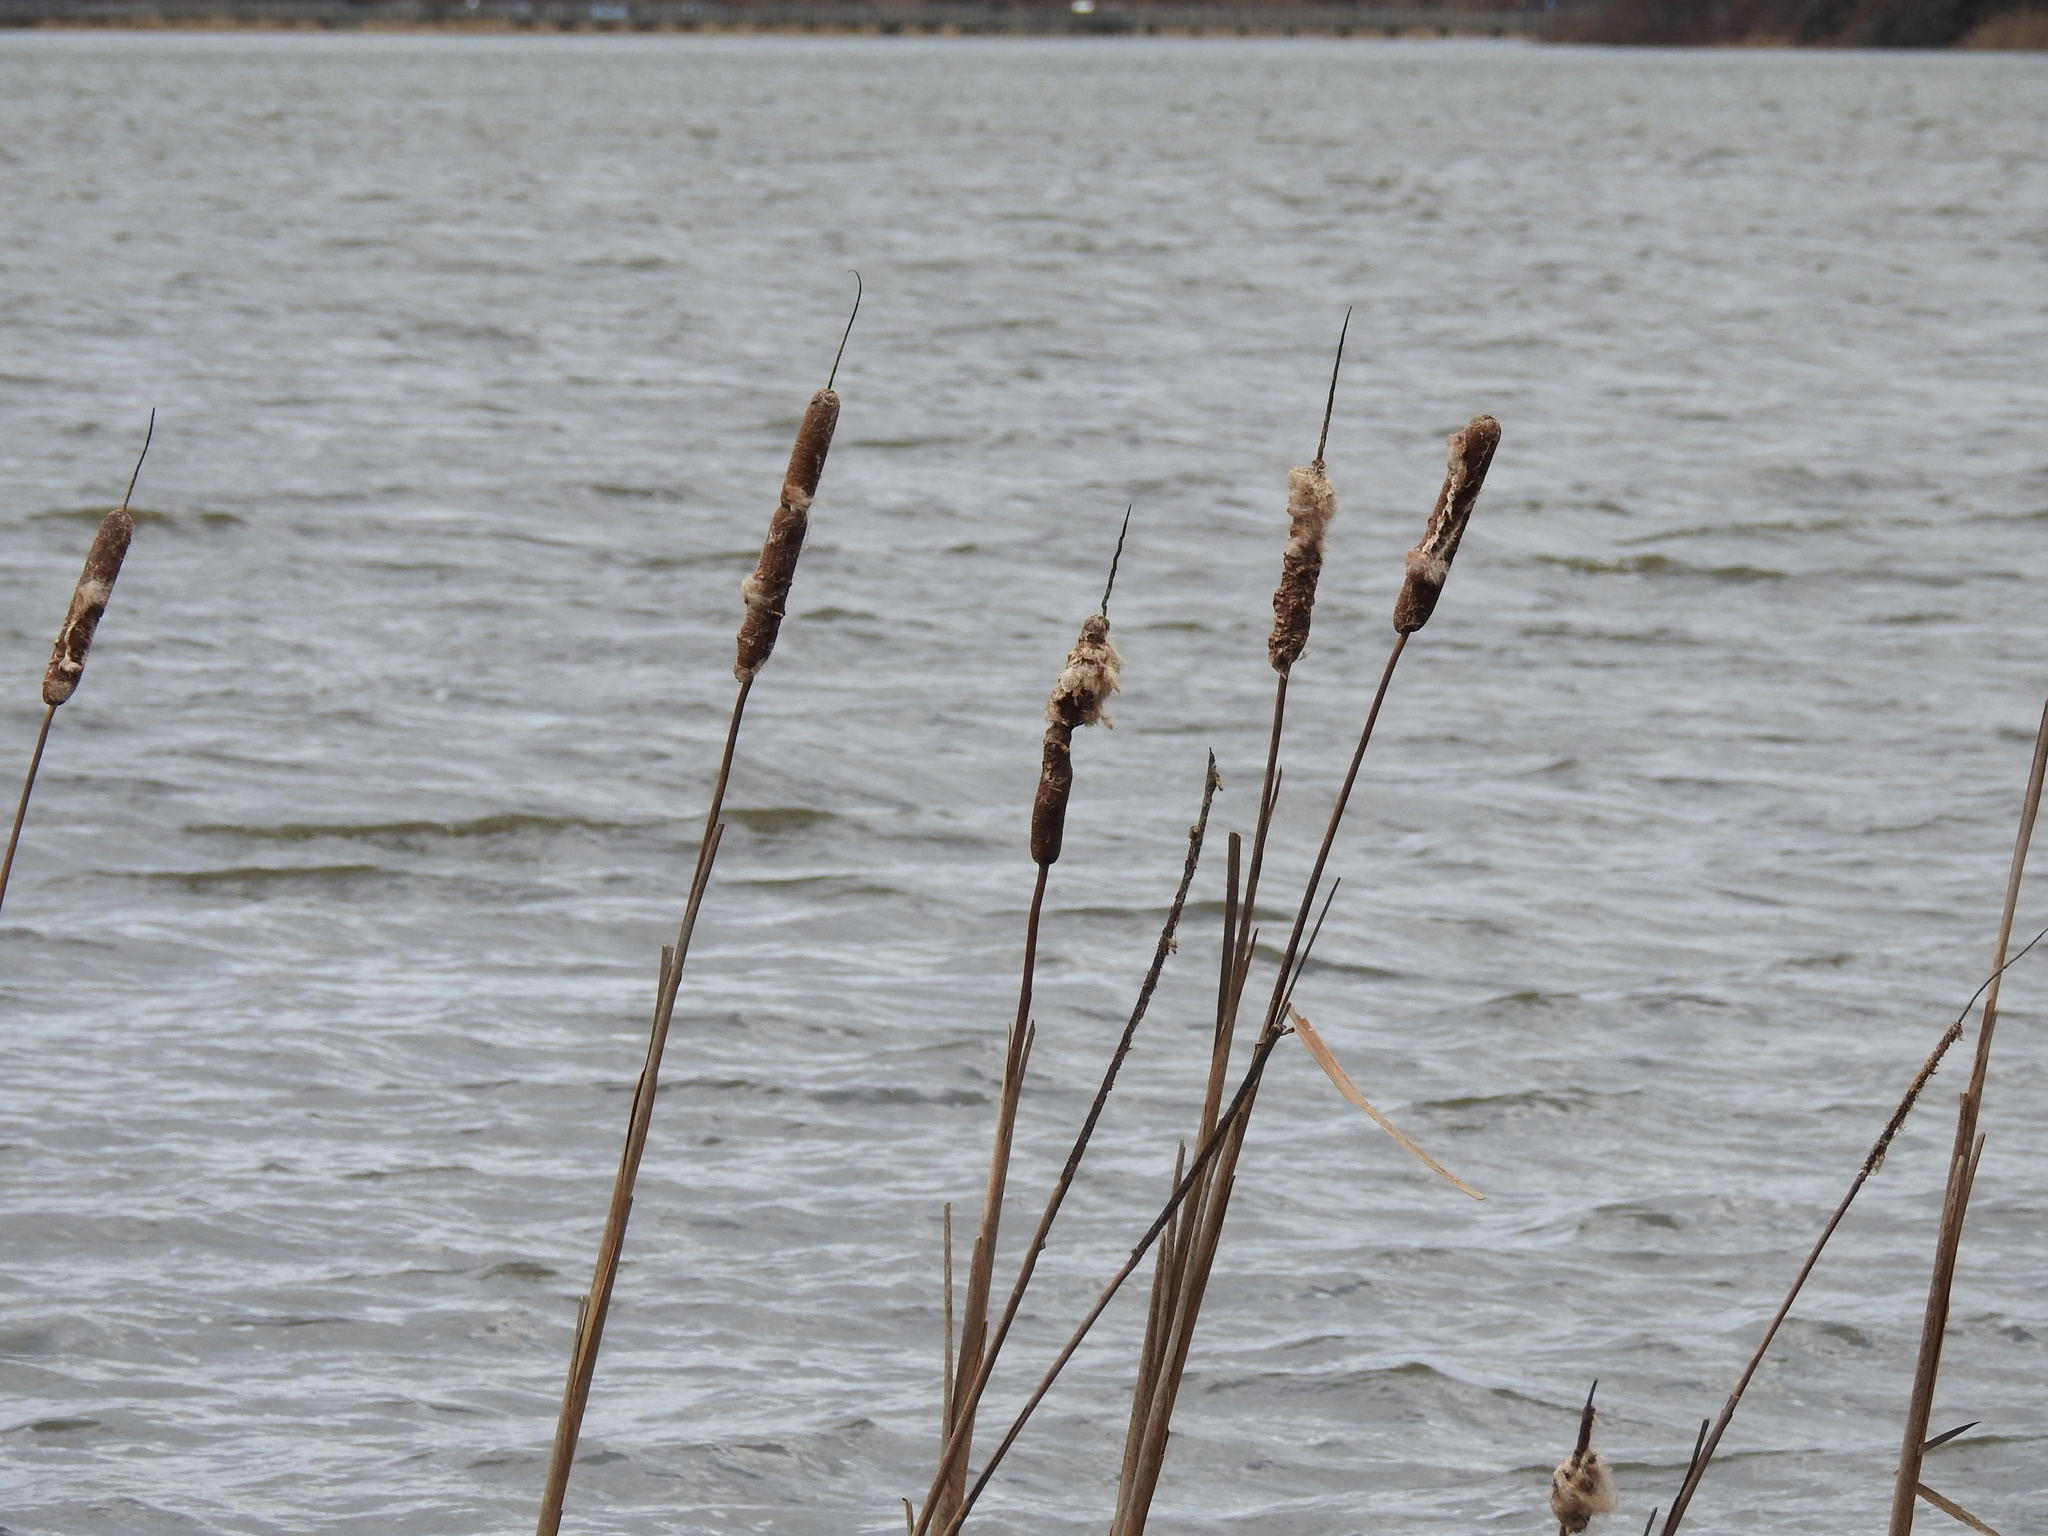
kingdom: Plantae
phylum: Tracheophyta
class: Liliopsida
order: Poales
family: Typhaceae
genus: Typha
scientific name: Typha
